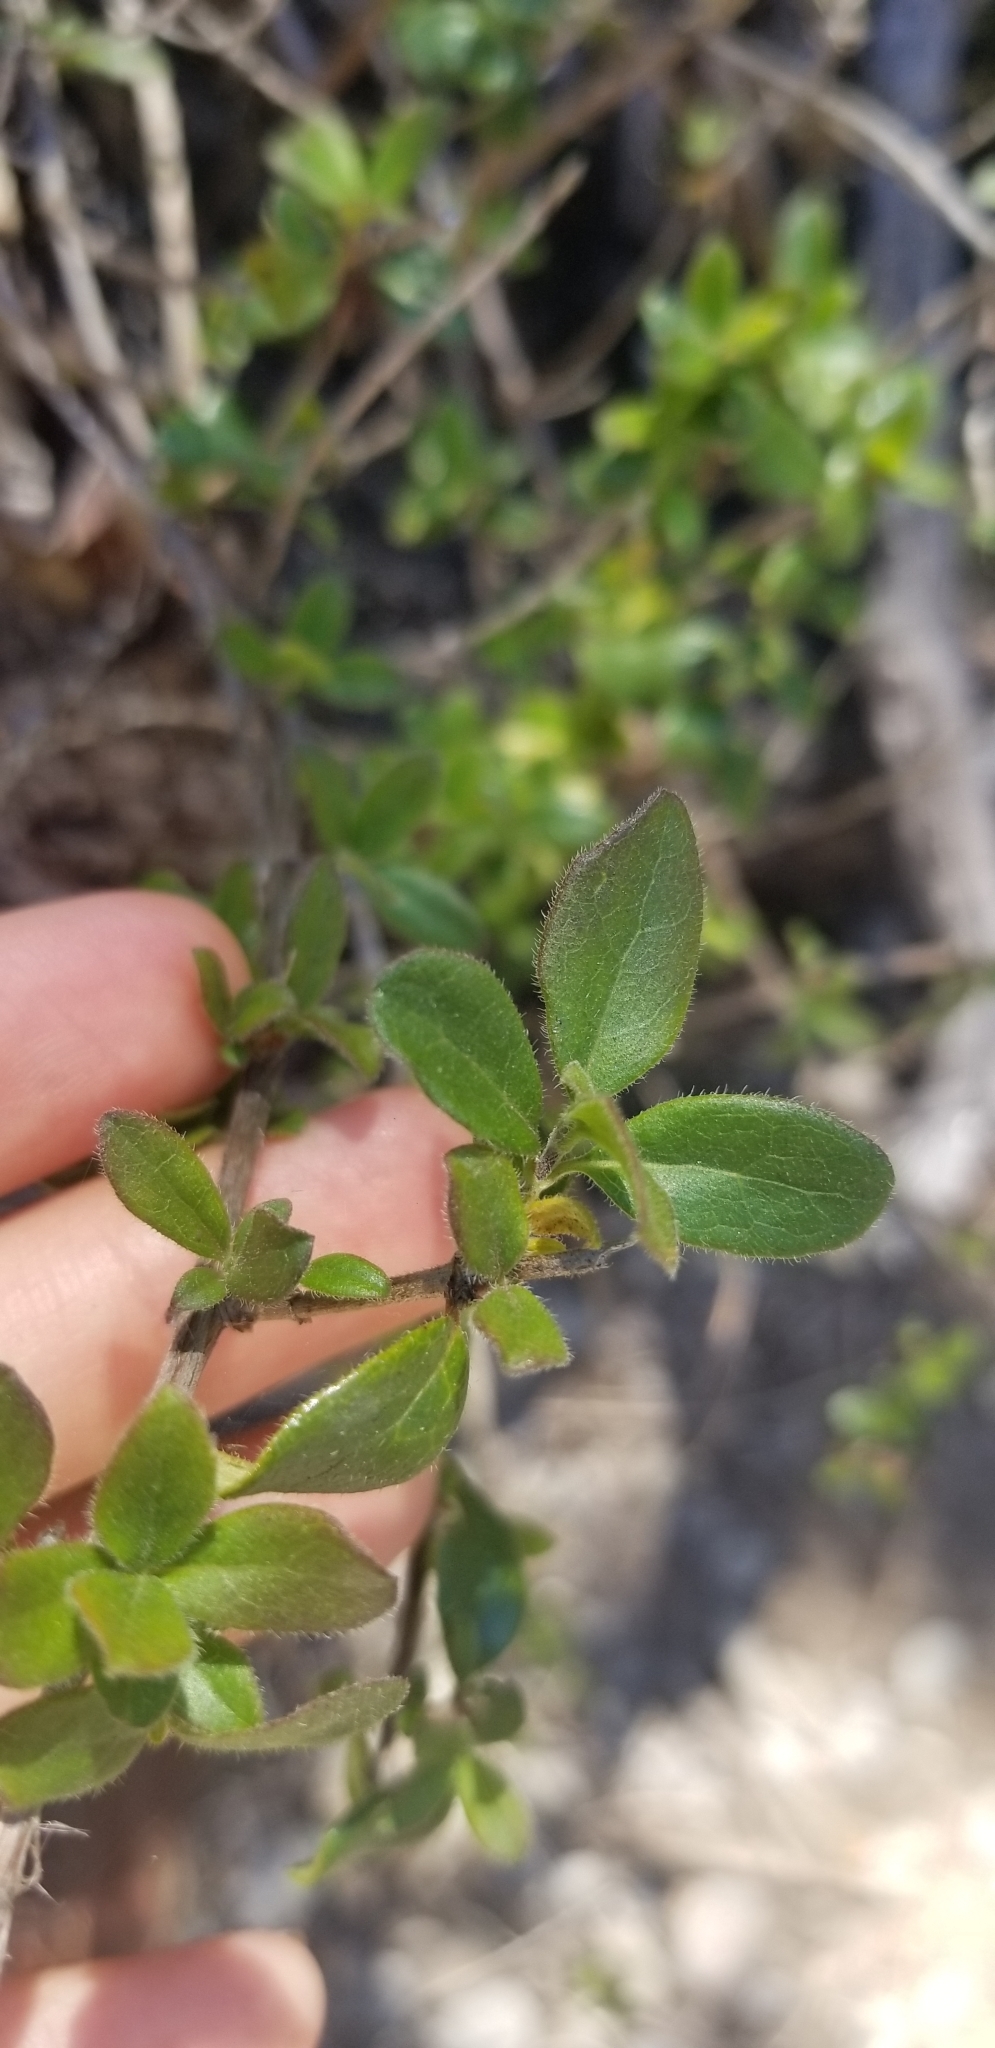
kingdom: Plantae
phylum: Tracheophyta
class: Magnoliopsida
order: Dipsacales
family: Caprifoliaceae
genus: Lonicera
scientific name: Lonicera subspicata
